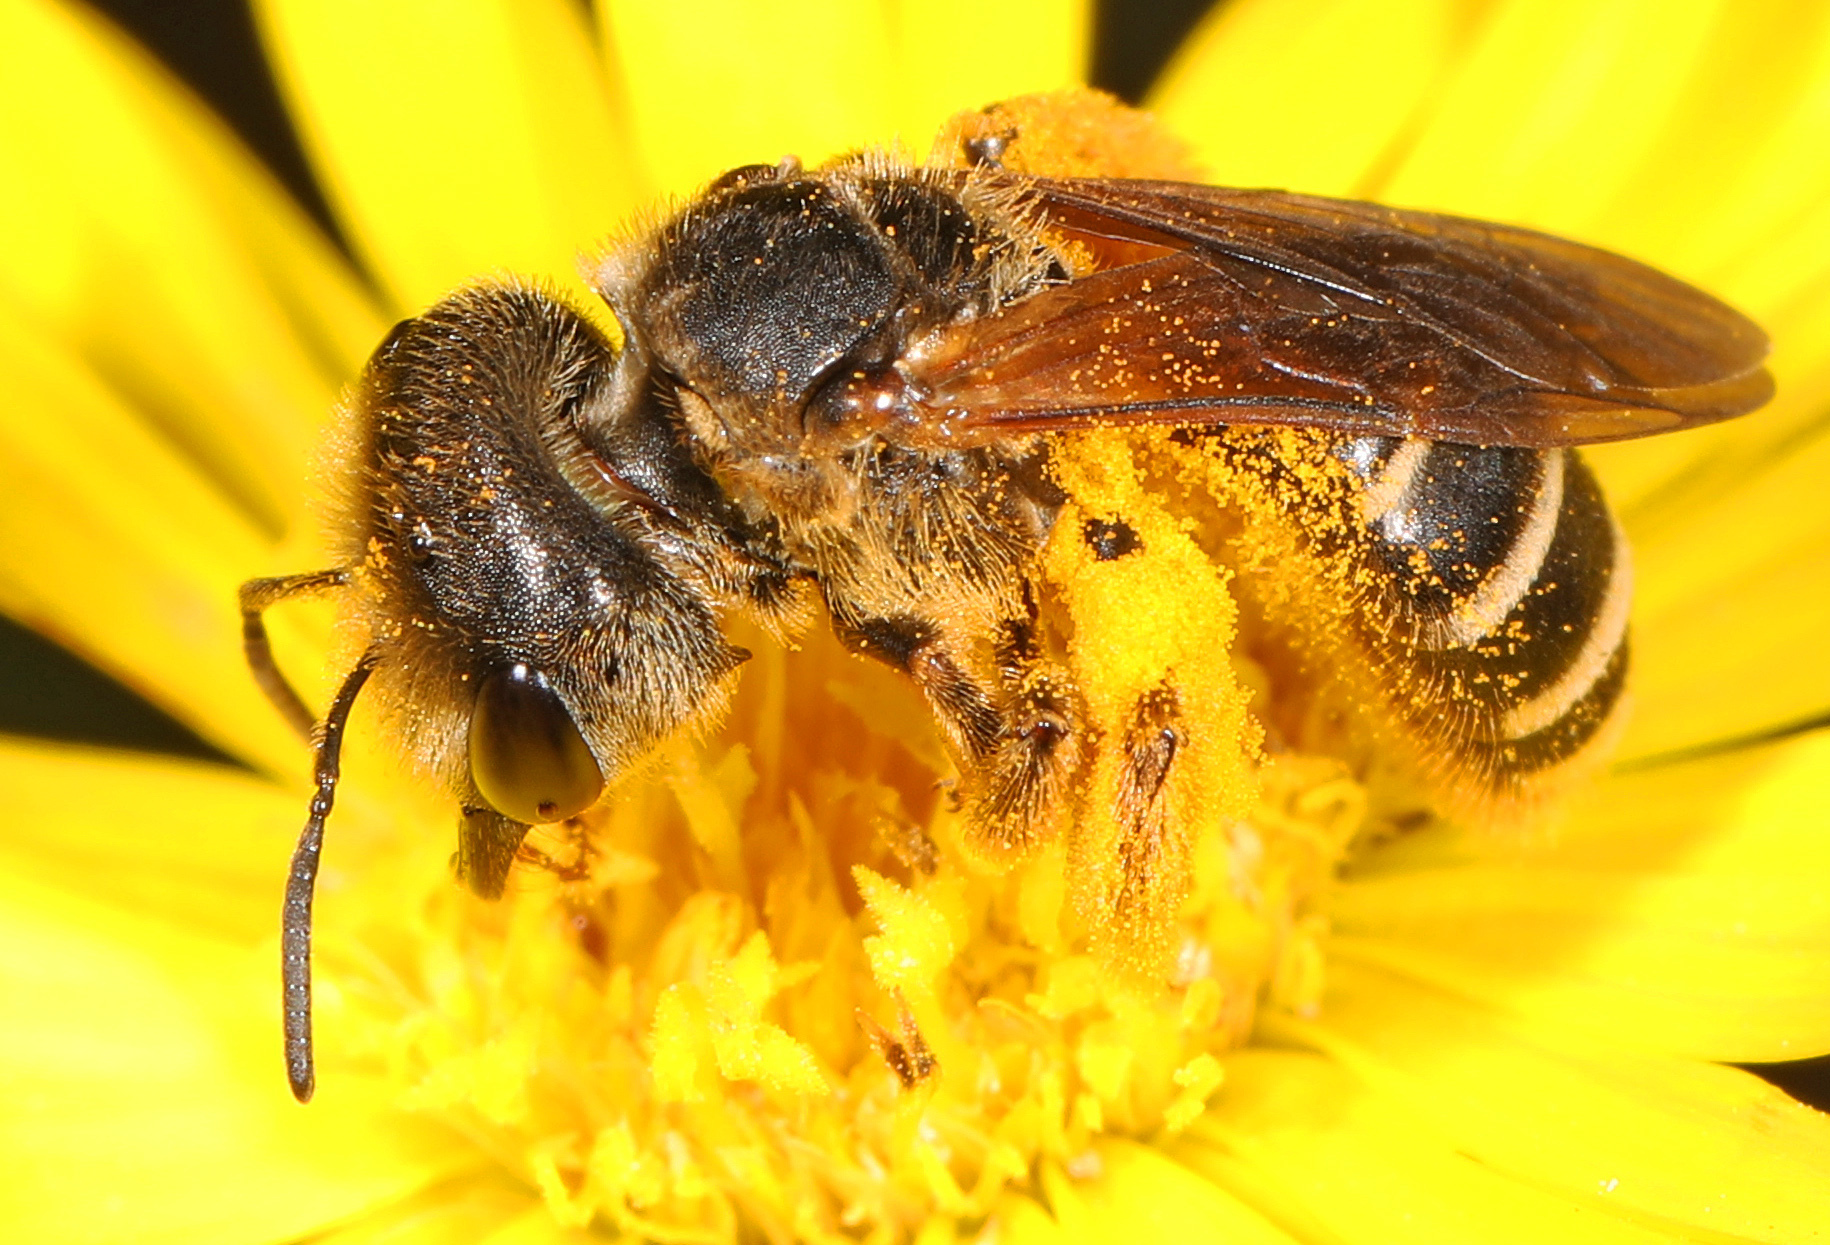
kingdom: Animalia
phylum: Arthropoda
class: Insecta
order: Hymenoptera
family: Halictidae
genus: Halictus
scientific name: Halictus poeyi
